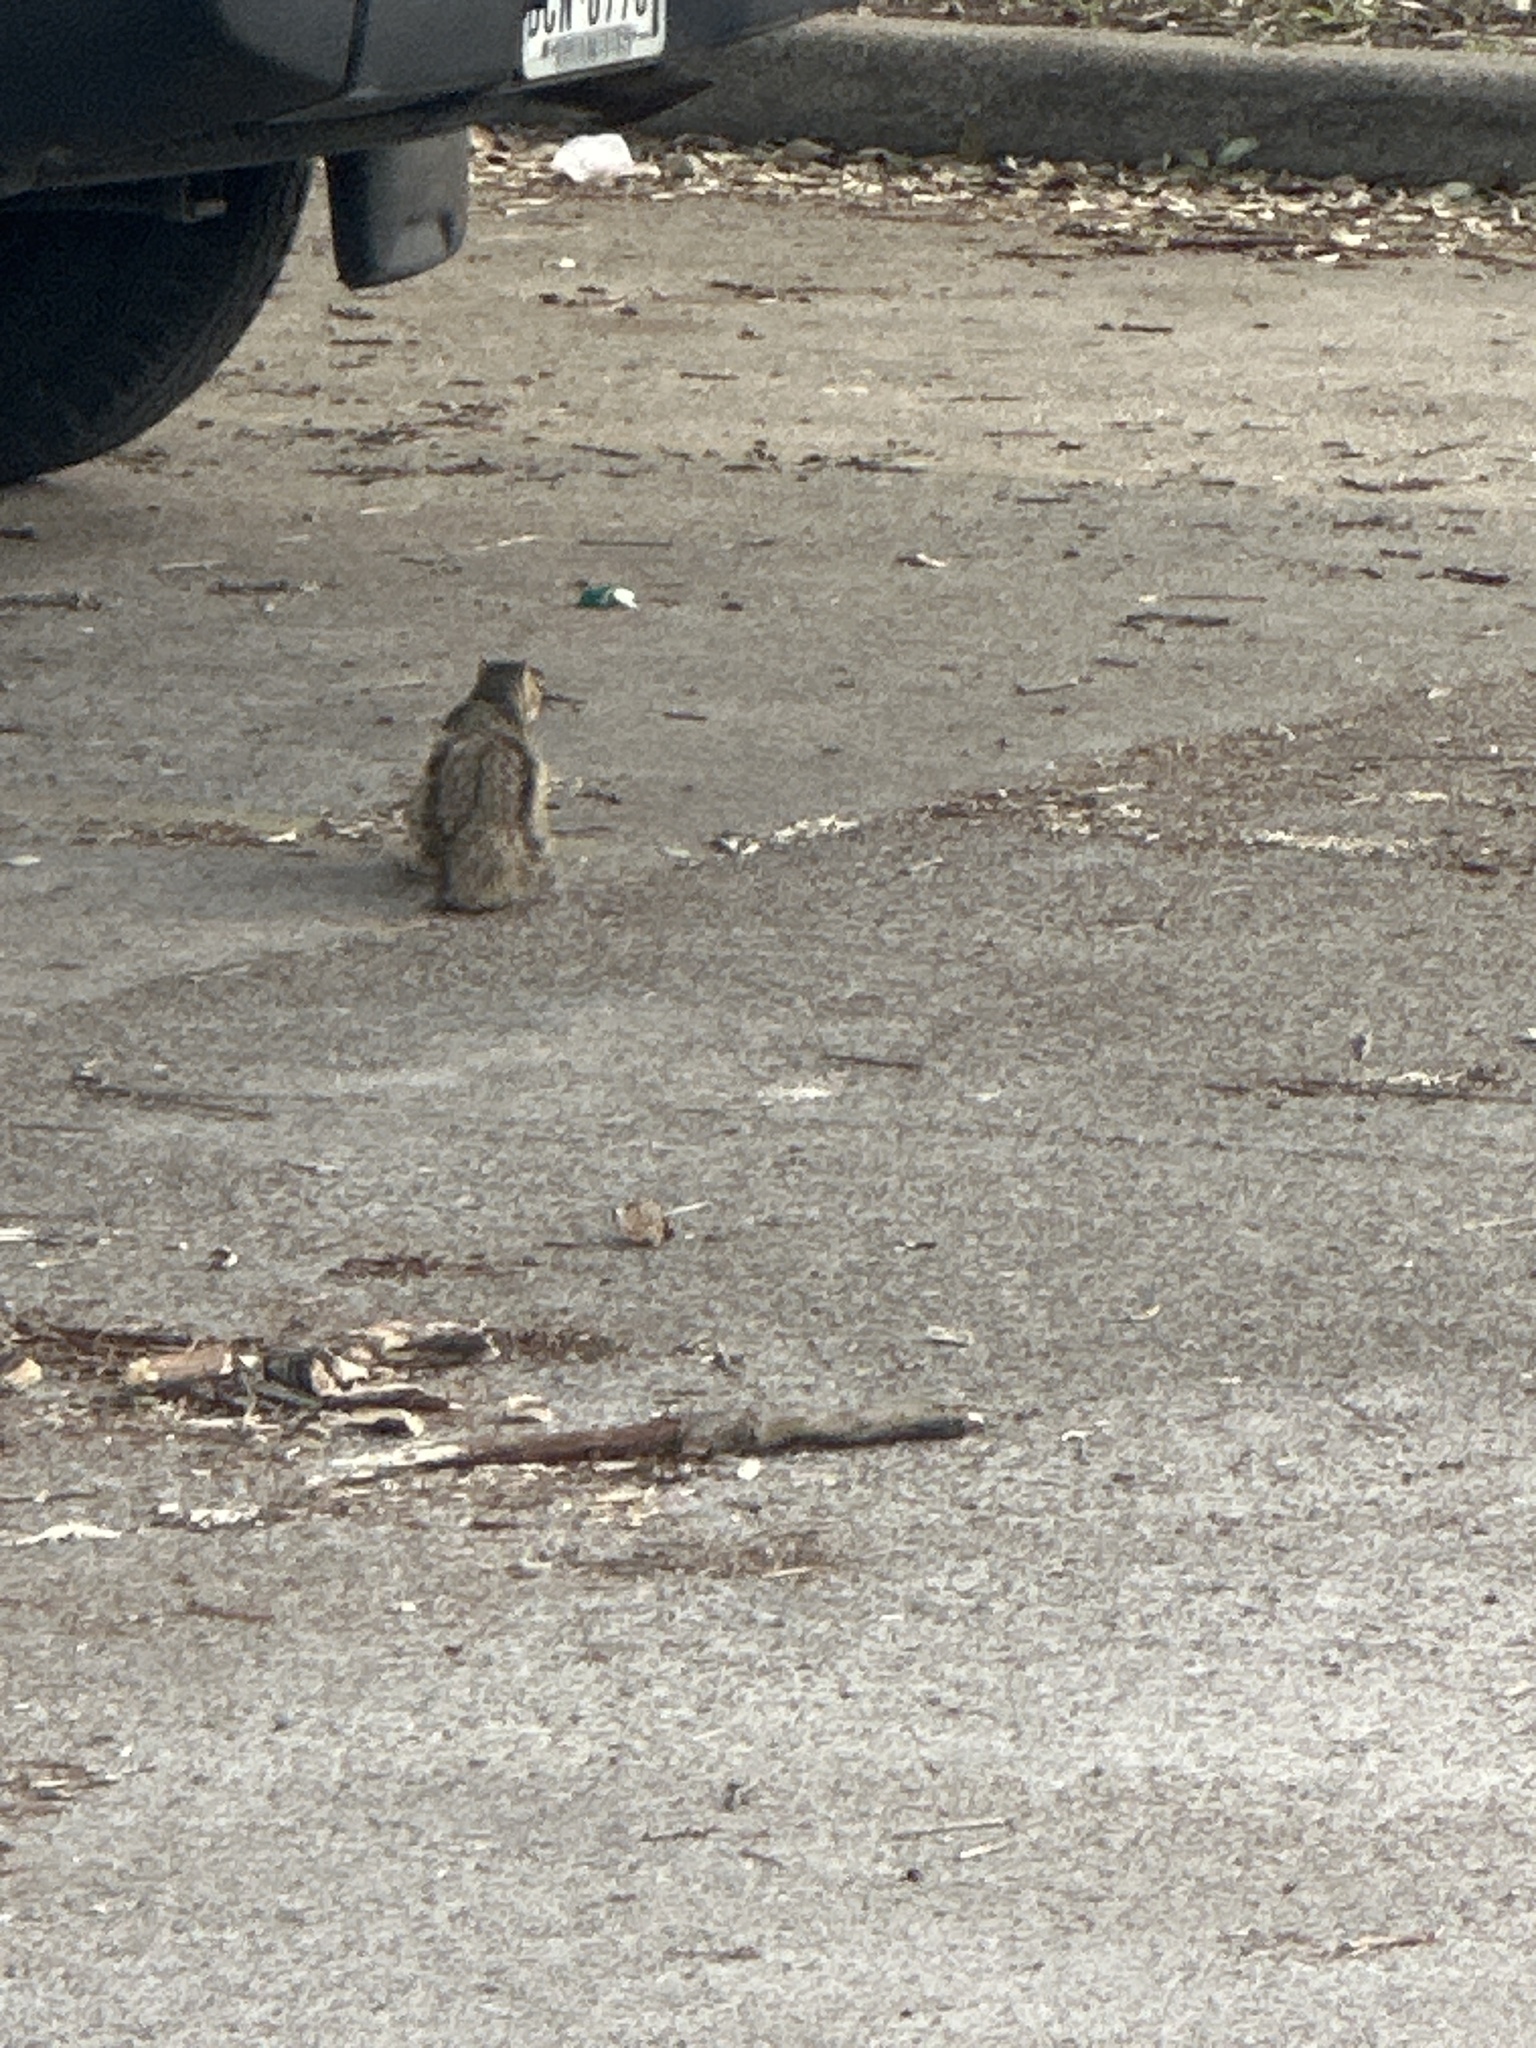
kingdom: Animalia
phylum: Chordata
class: Mammalia
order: Rodentia
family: Sciuridae
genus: Sciurus
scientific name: Sciurus niger
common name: Fox squirrel
